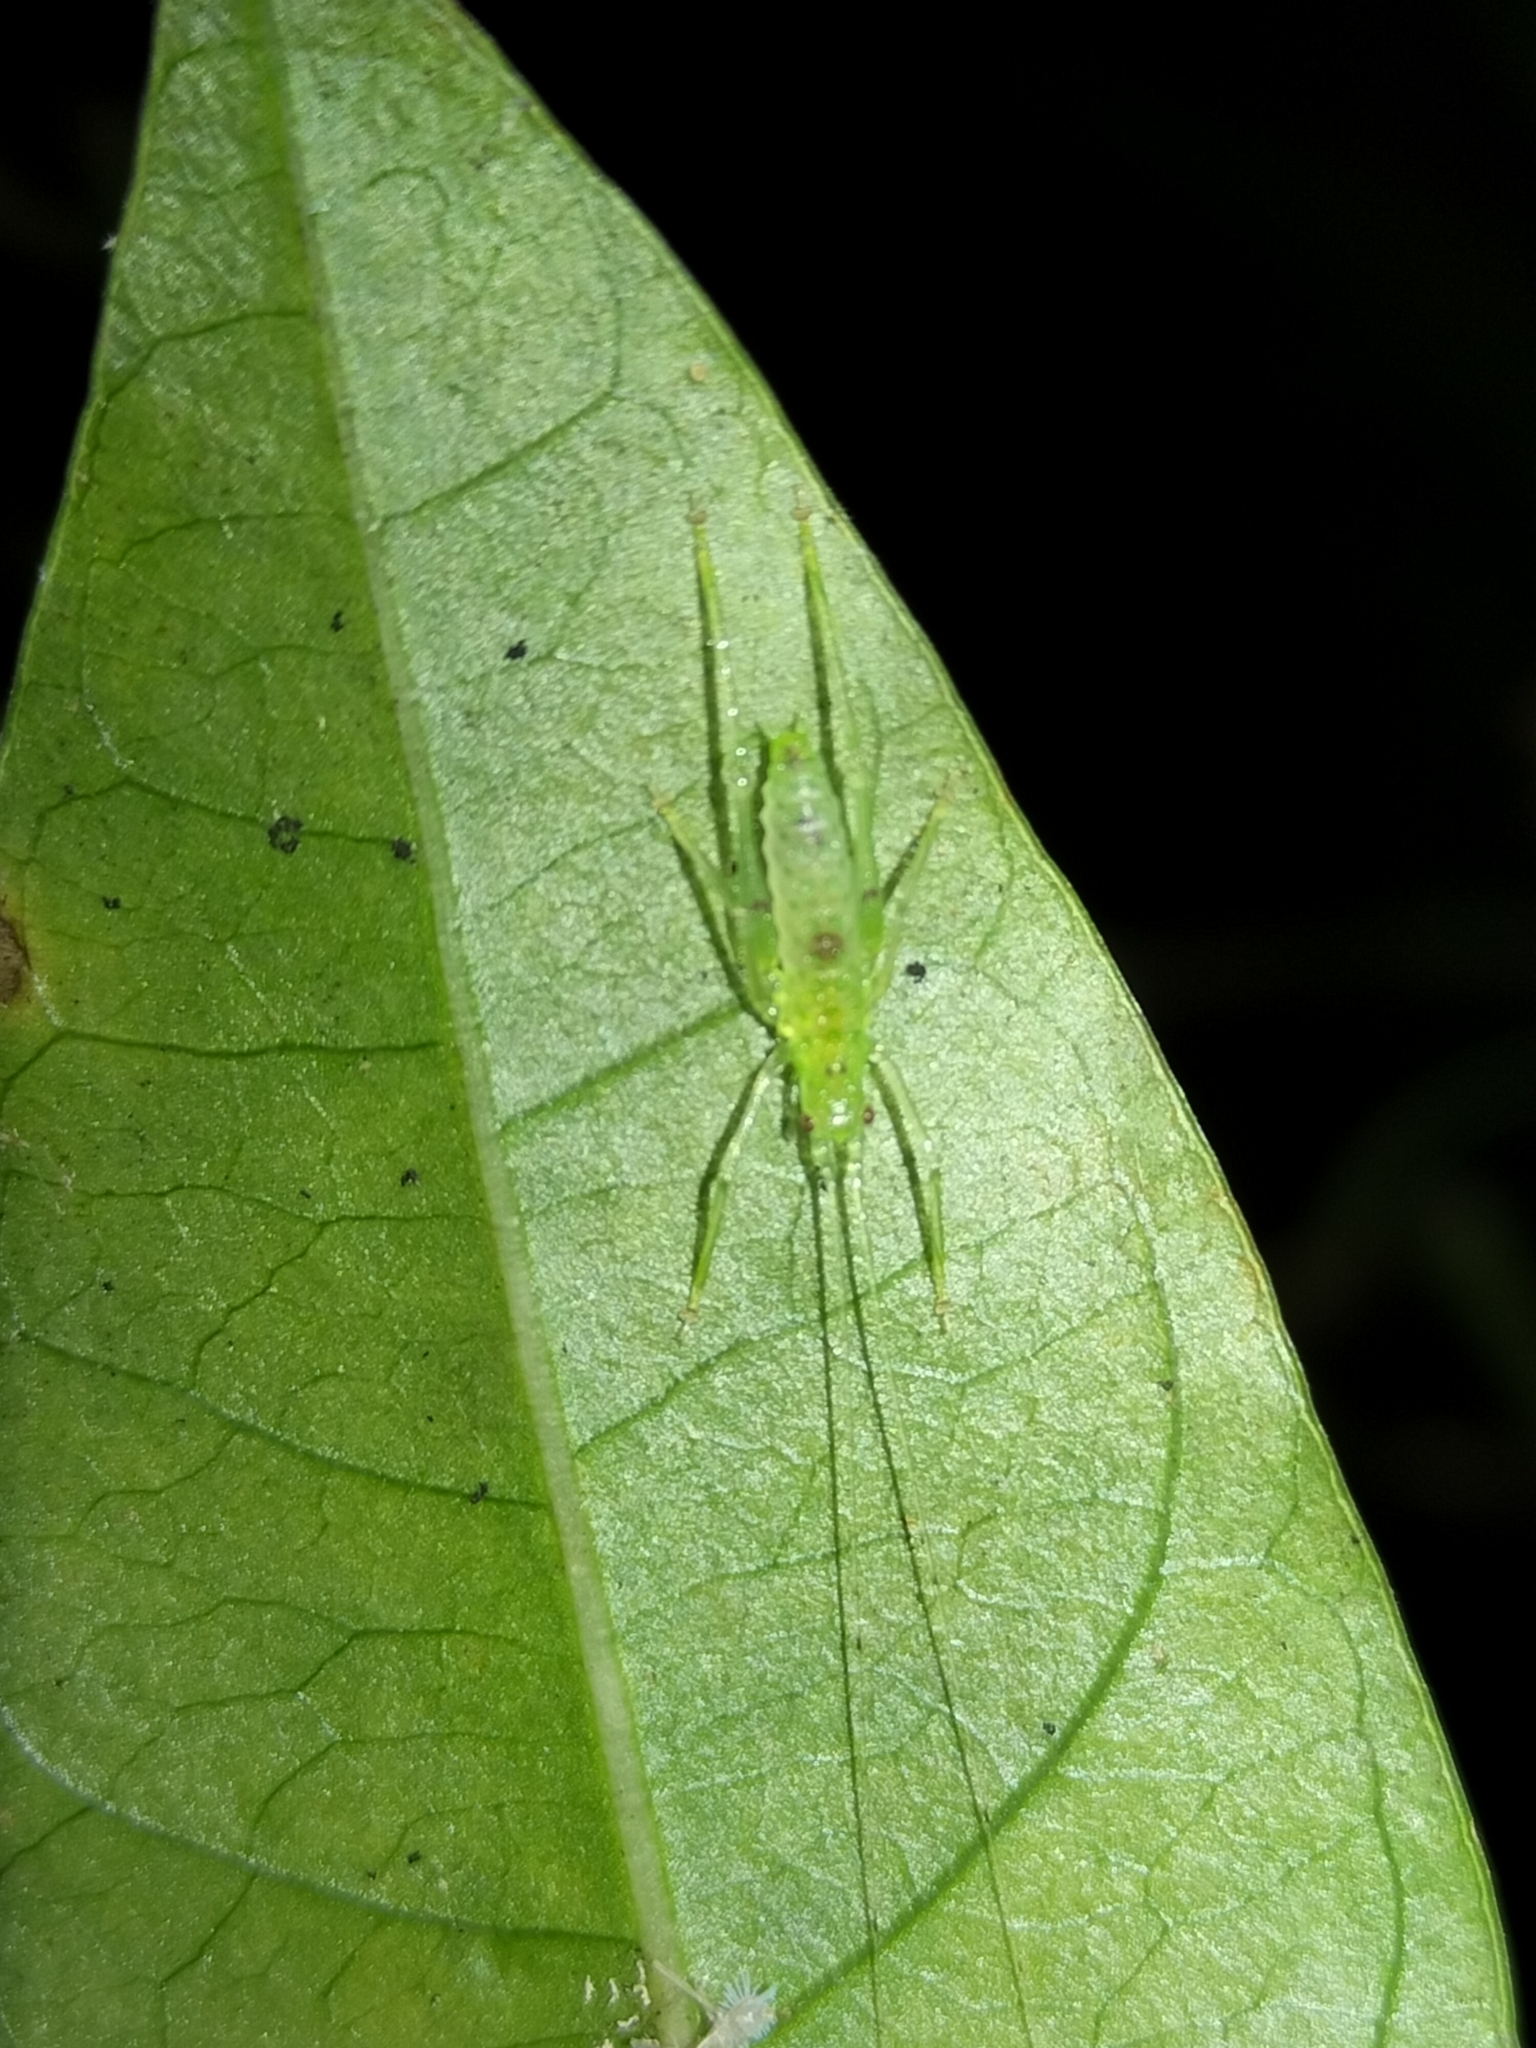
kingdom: Animalia
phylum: Arthropoda
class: Insecta
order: Orthoptera
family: Tettigoniidae
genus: Miniagraecia
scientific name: Miniagraecia milyali
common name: Tiny forest green katydid
